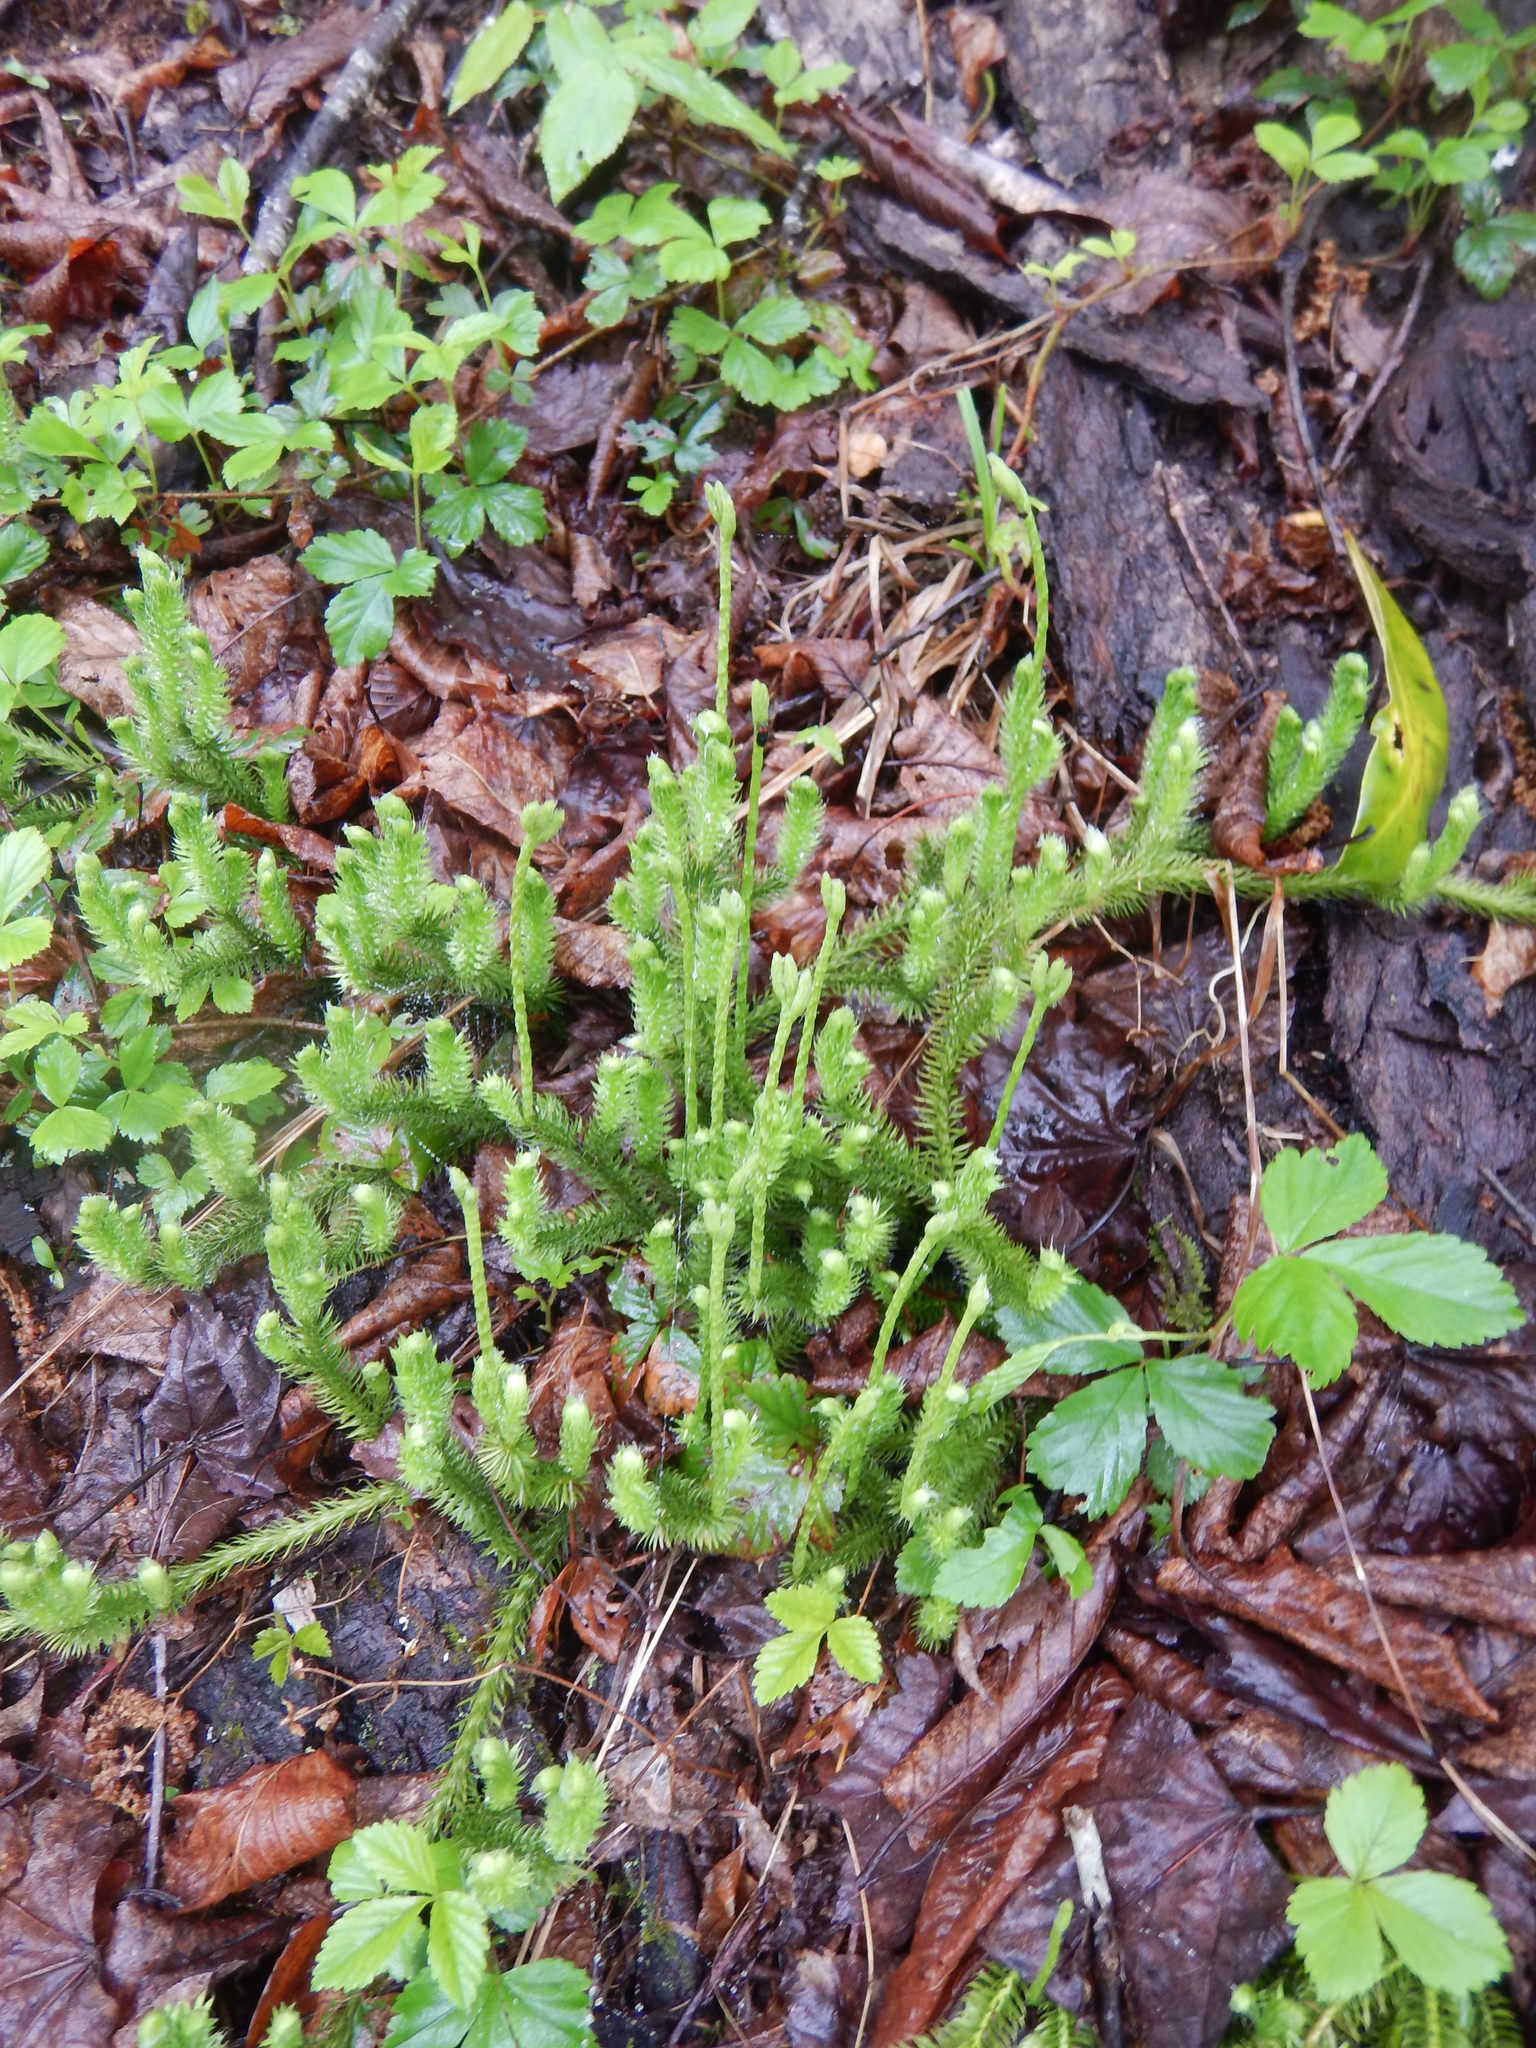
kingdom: Plantae
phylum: Tracheophyta
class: Lycopodiopsida
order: Lycopodiales
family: Lycopodiaceae
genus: Lycopodium
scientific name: Lycopodium clavatum
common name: Stag's-horn clubmoss
